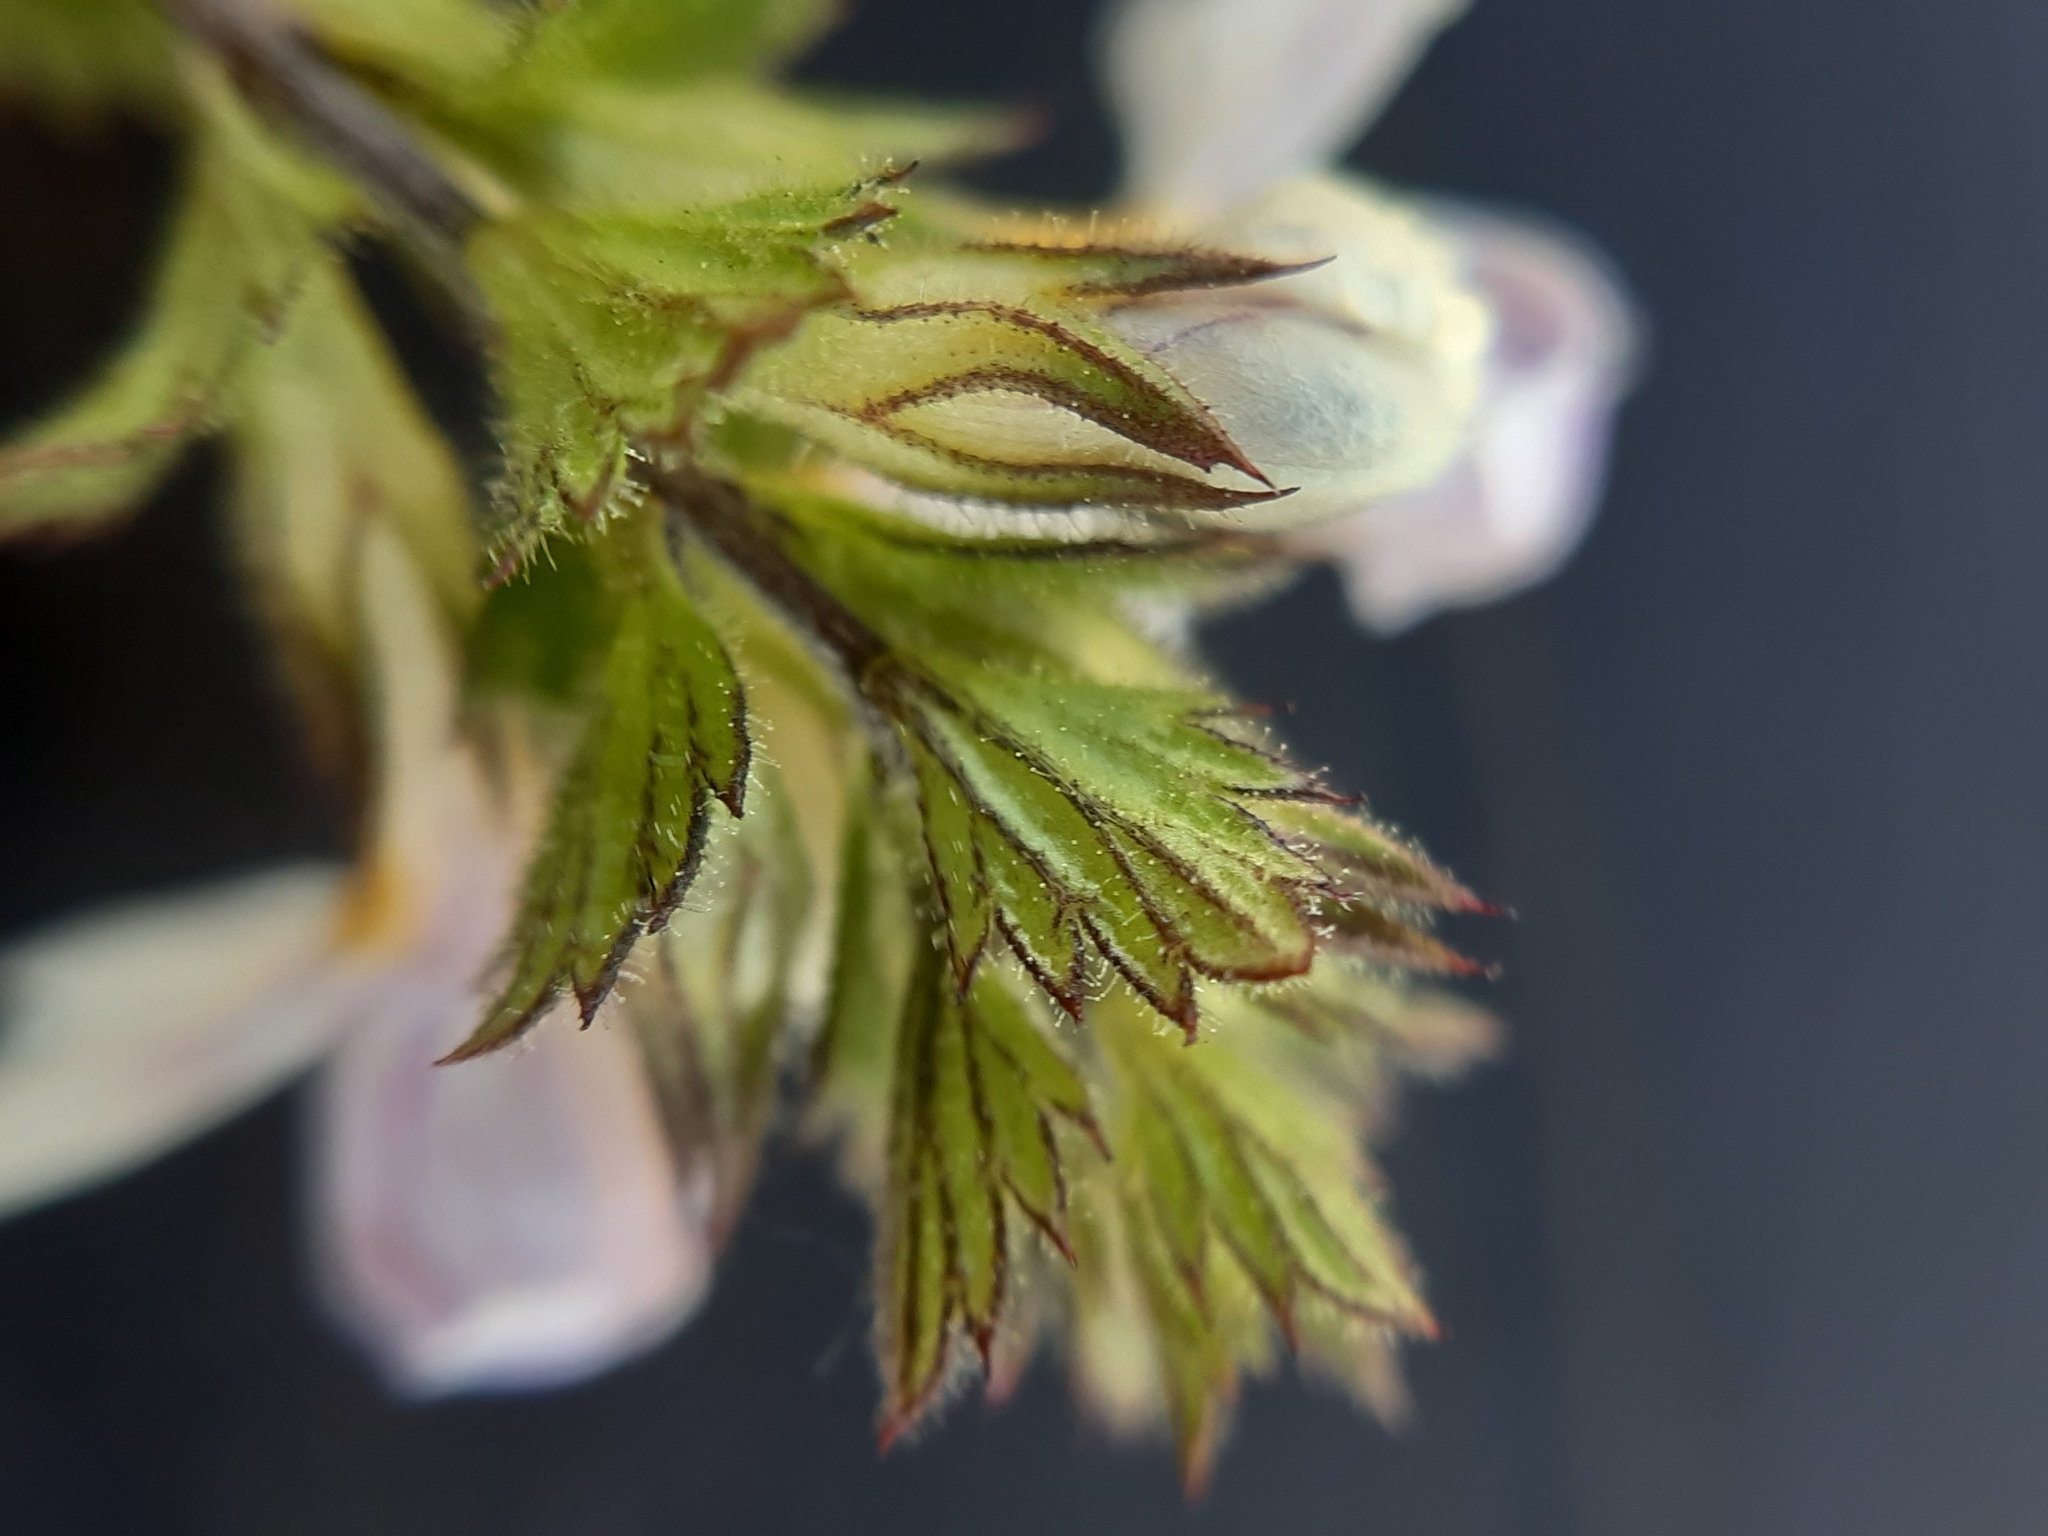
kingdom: Plantae
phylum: Tracheophyta
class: Magnoliopsida
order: Lamiales
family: Orobanchaceae
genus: Euphrasia
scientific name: Euphrasia officinalis
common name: Eyebright
